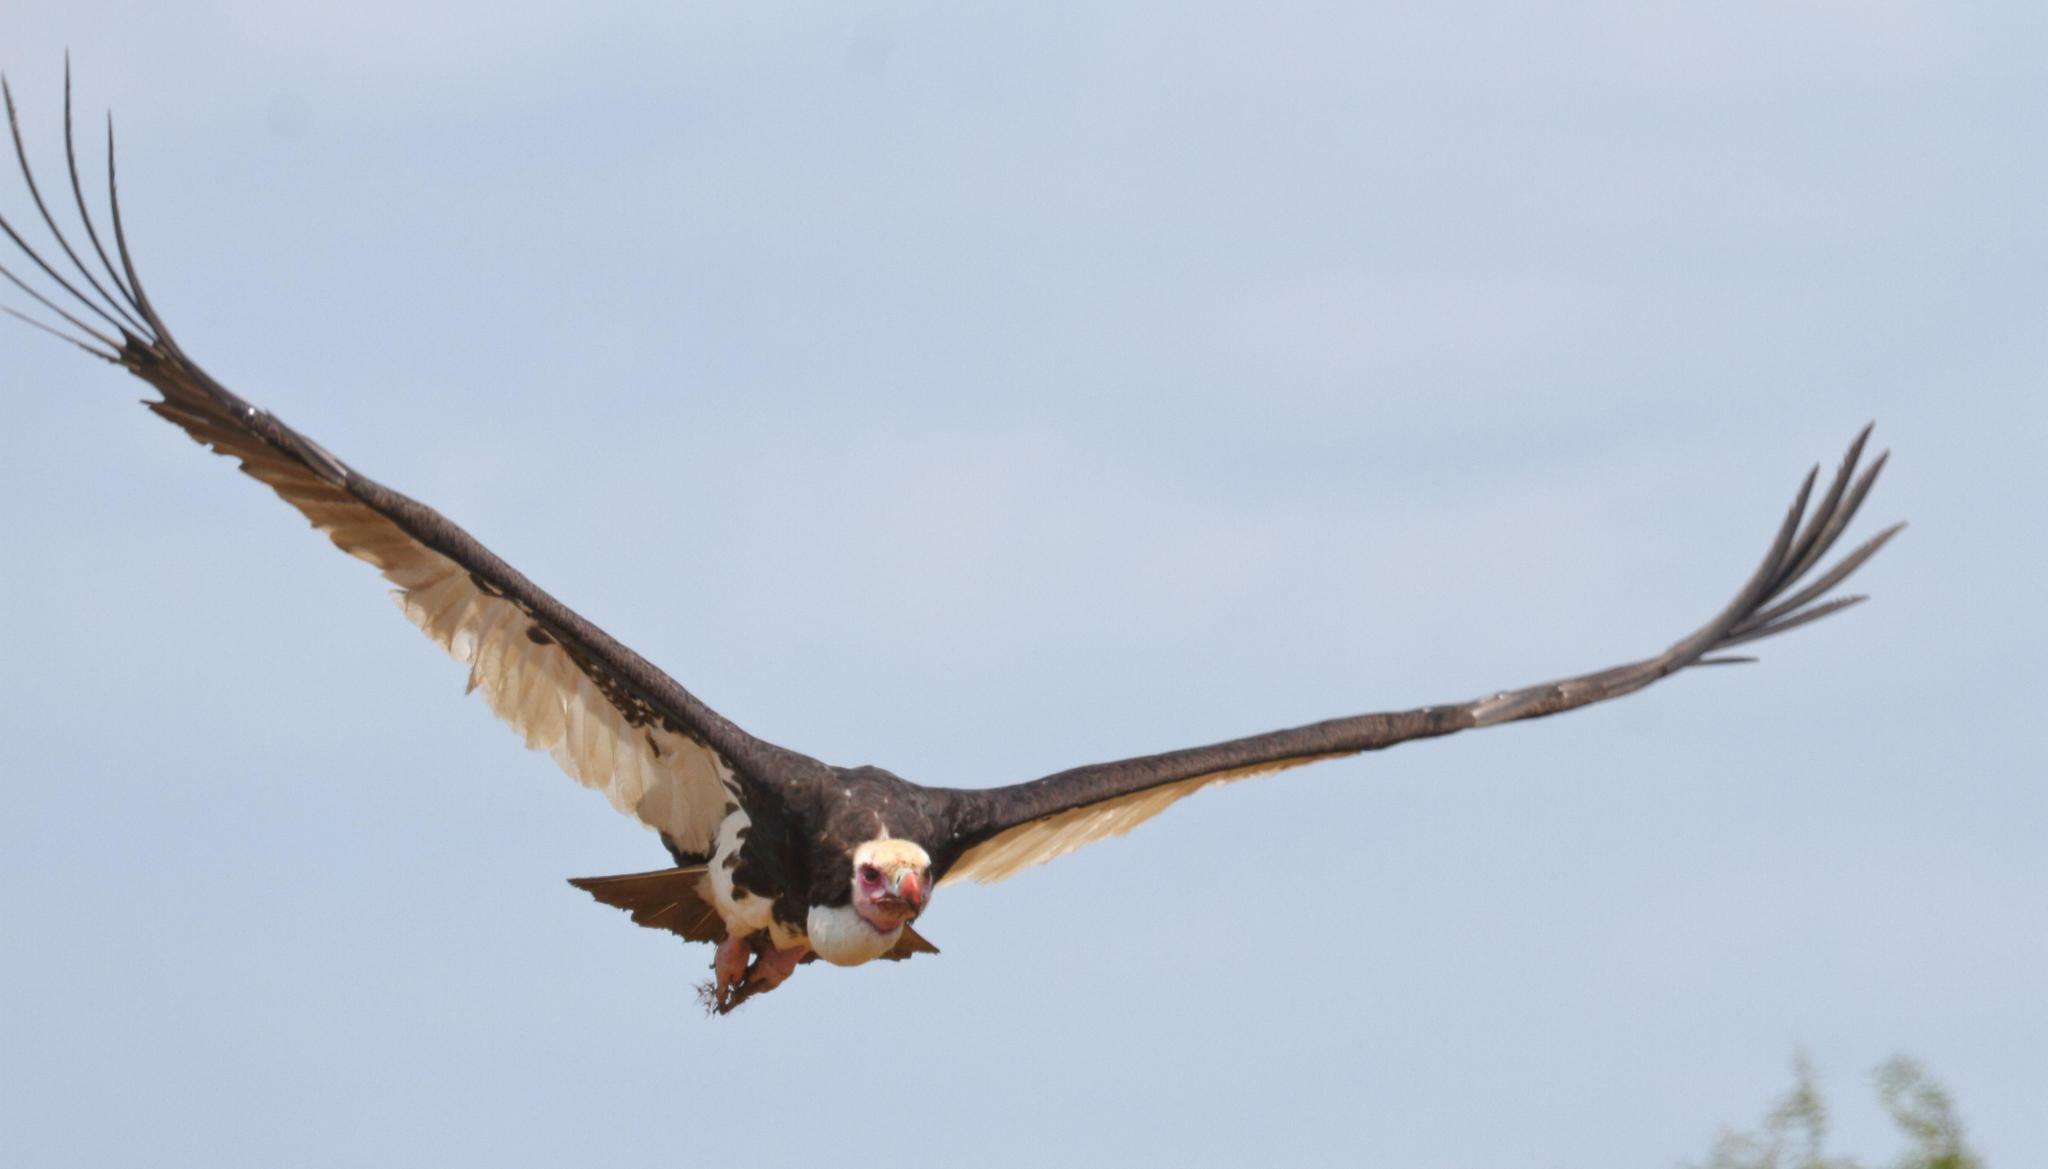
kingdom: Animalia
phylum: Chordata
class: Aves
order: Accipitriformes
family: Accipitridae
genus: Trigonoceps
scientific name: Trigonoceps occipitalis
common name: White-headed vulture
